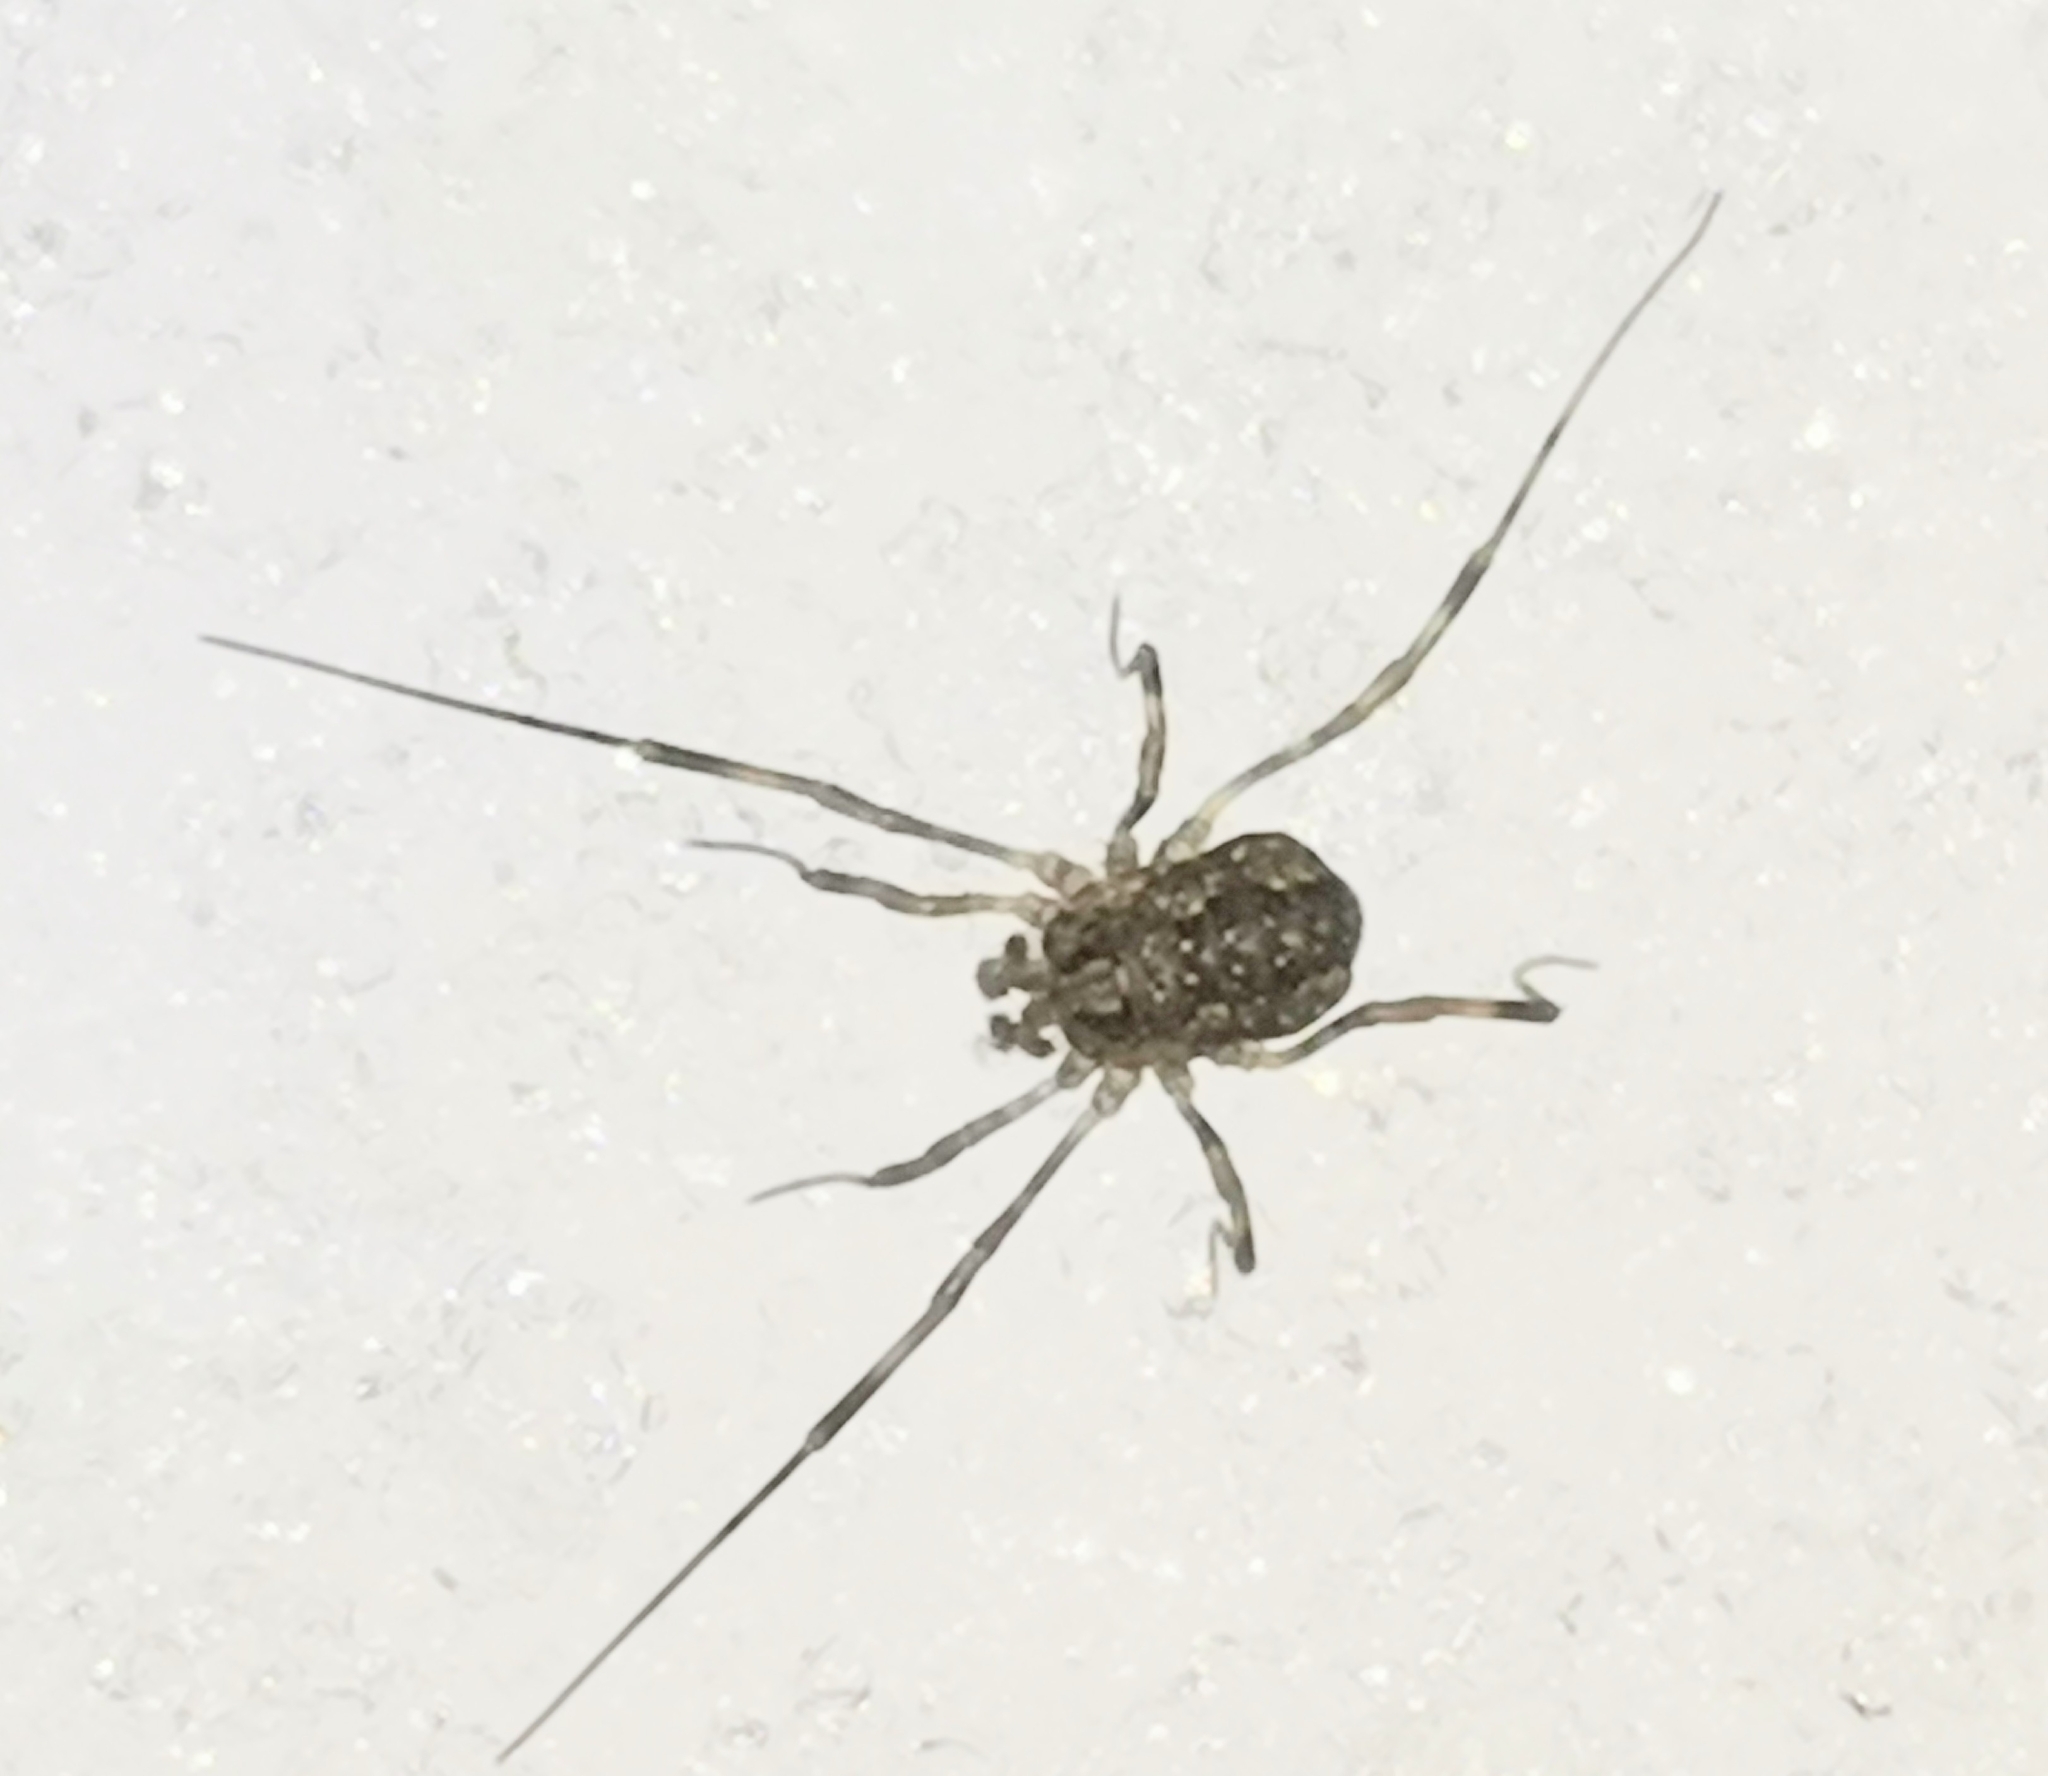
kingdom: Animalia
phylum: Arthropoda
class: Arachnida
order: Opiliones
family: Phalangiidae
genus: Rilaena
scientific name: Rilaena triangularis
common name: Spring harvestman
